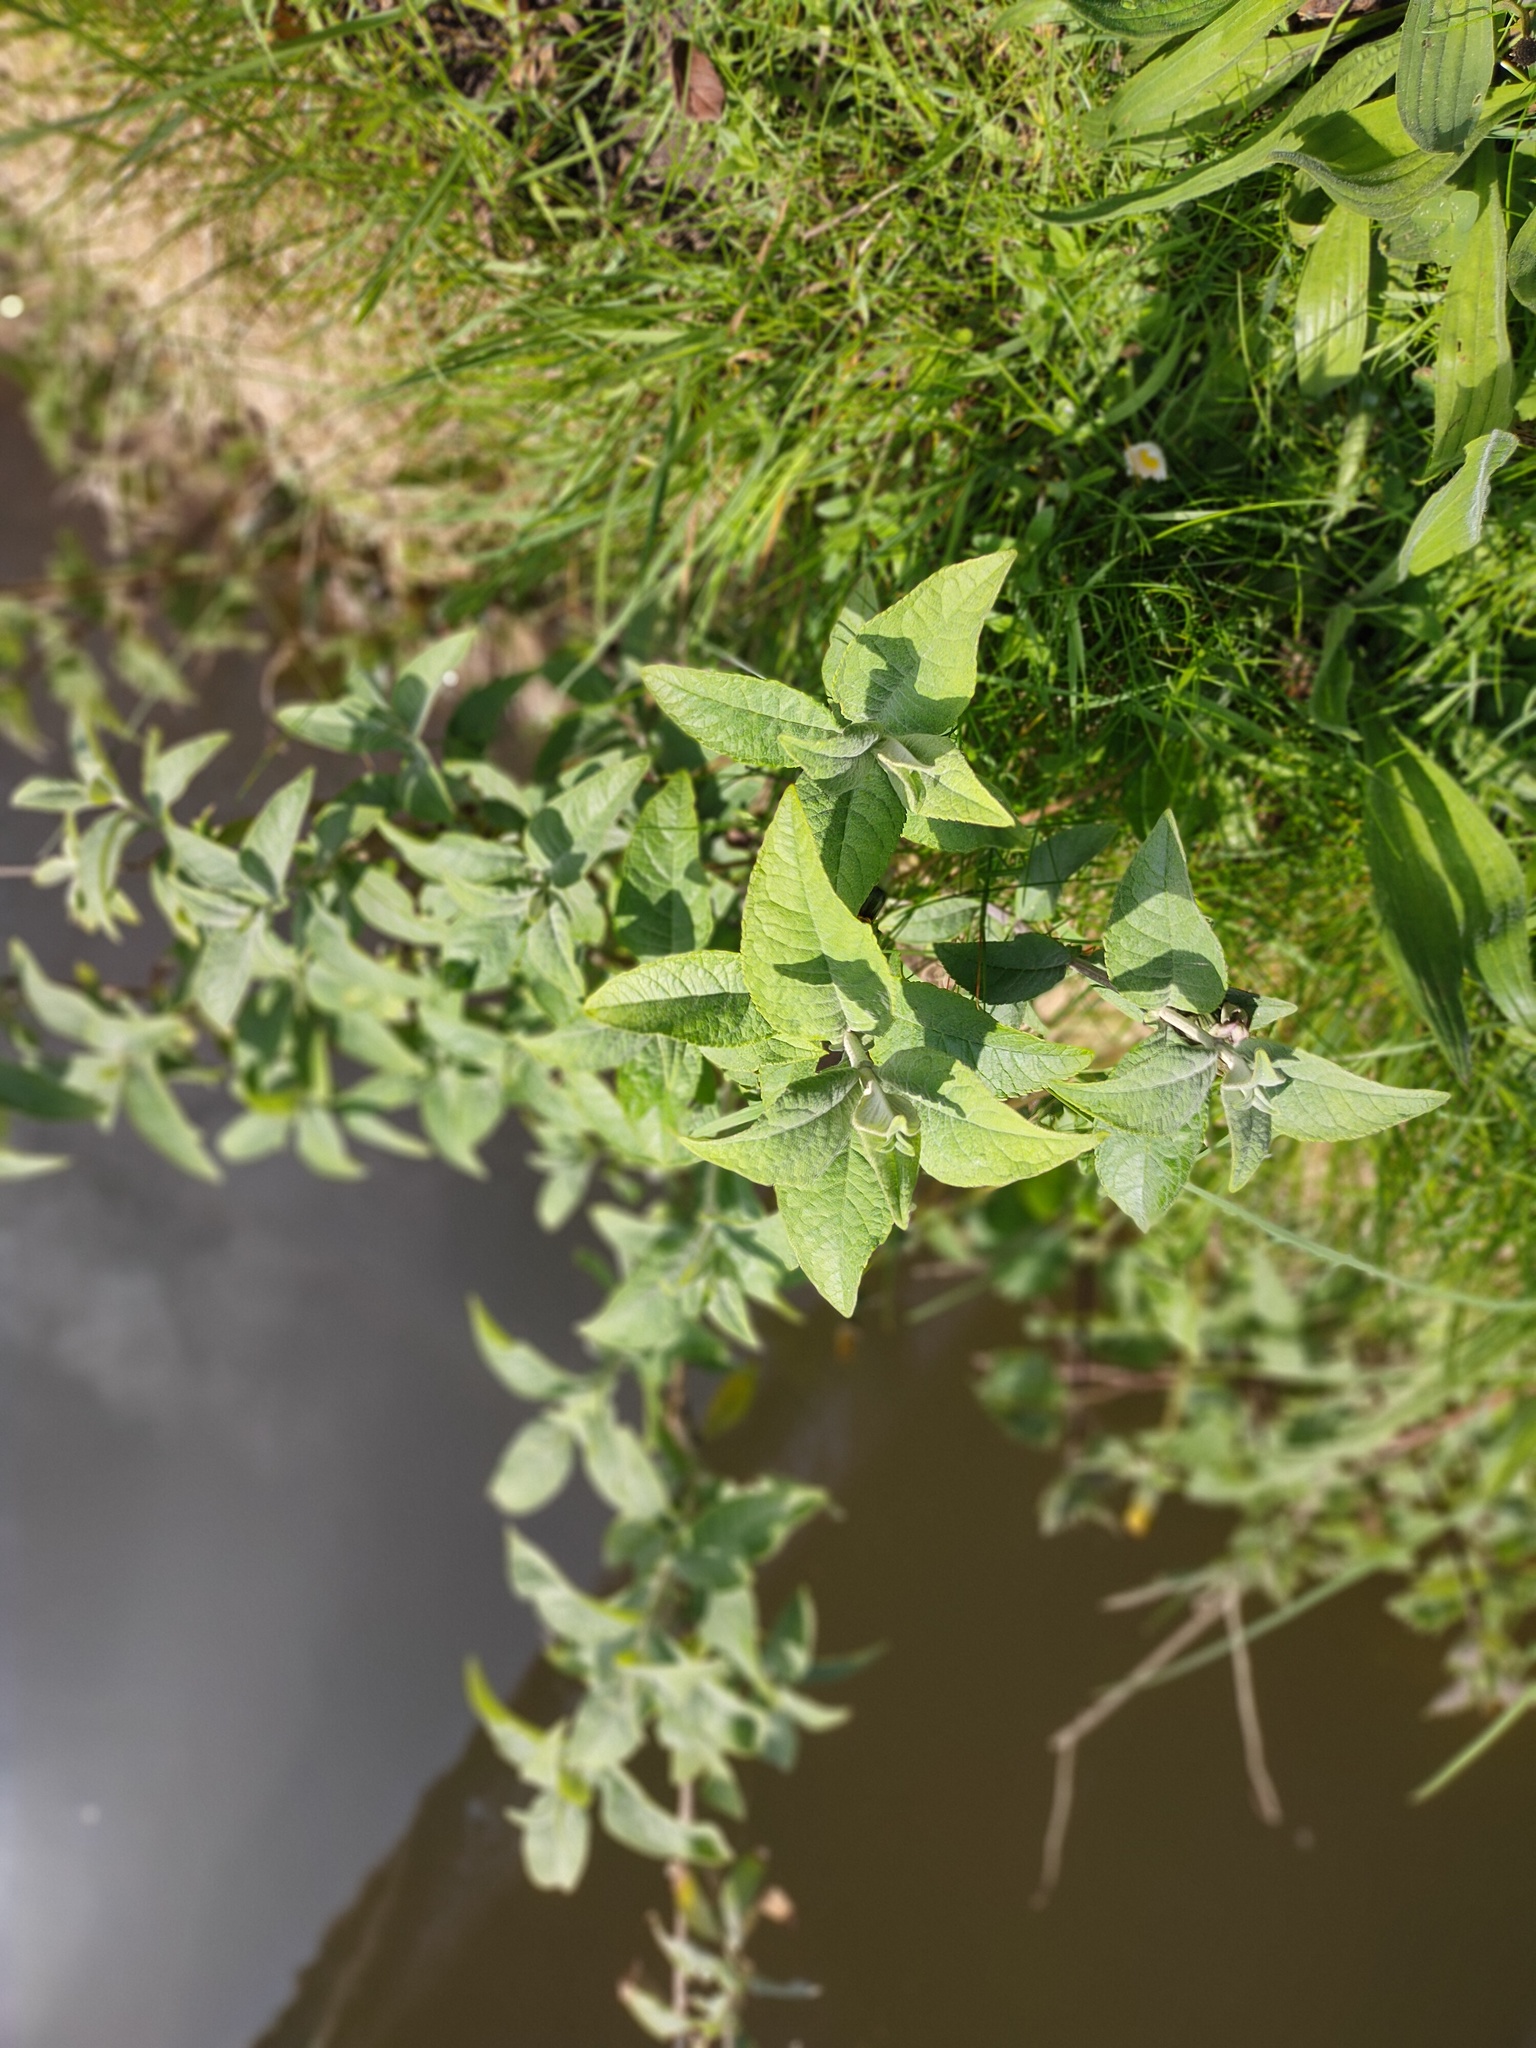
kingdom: Plantae
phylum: Tracheophyta
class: Magnoliopsida
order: Lamiales
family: Scrophulariaceae
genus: Buddleja
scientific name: Buddleja davidii
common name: Butterfly-bush
